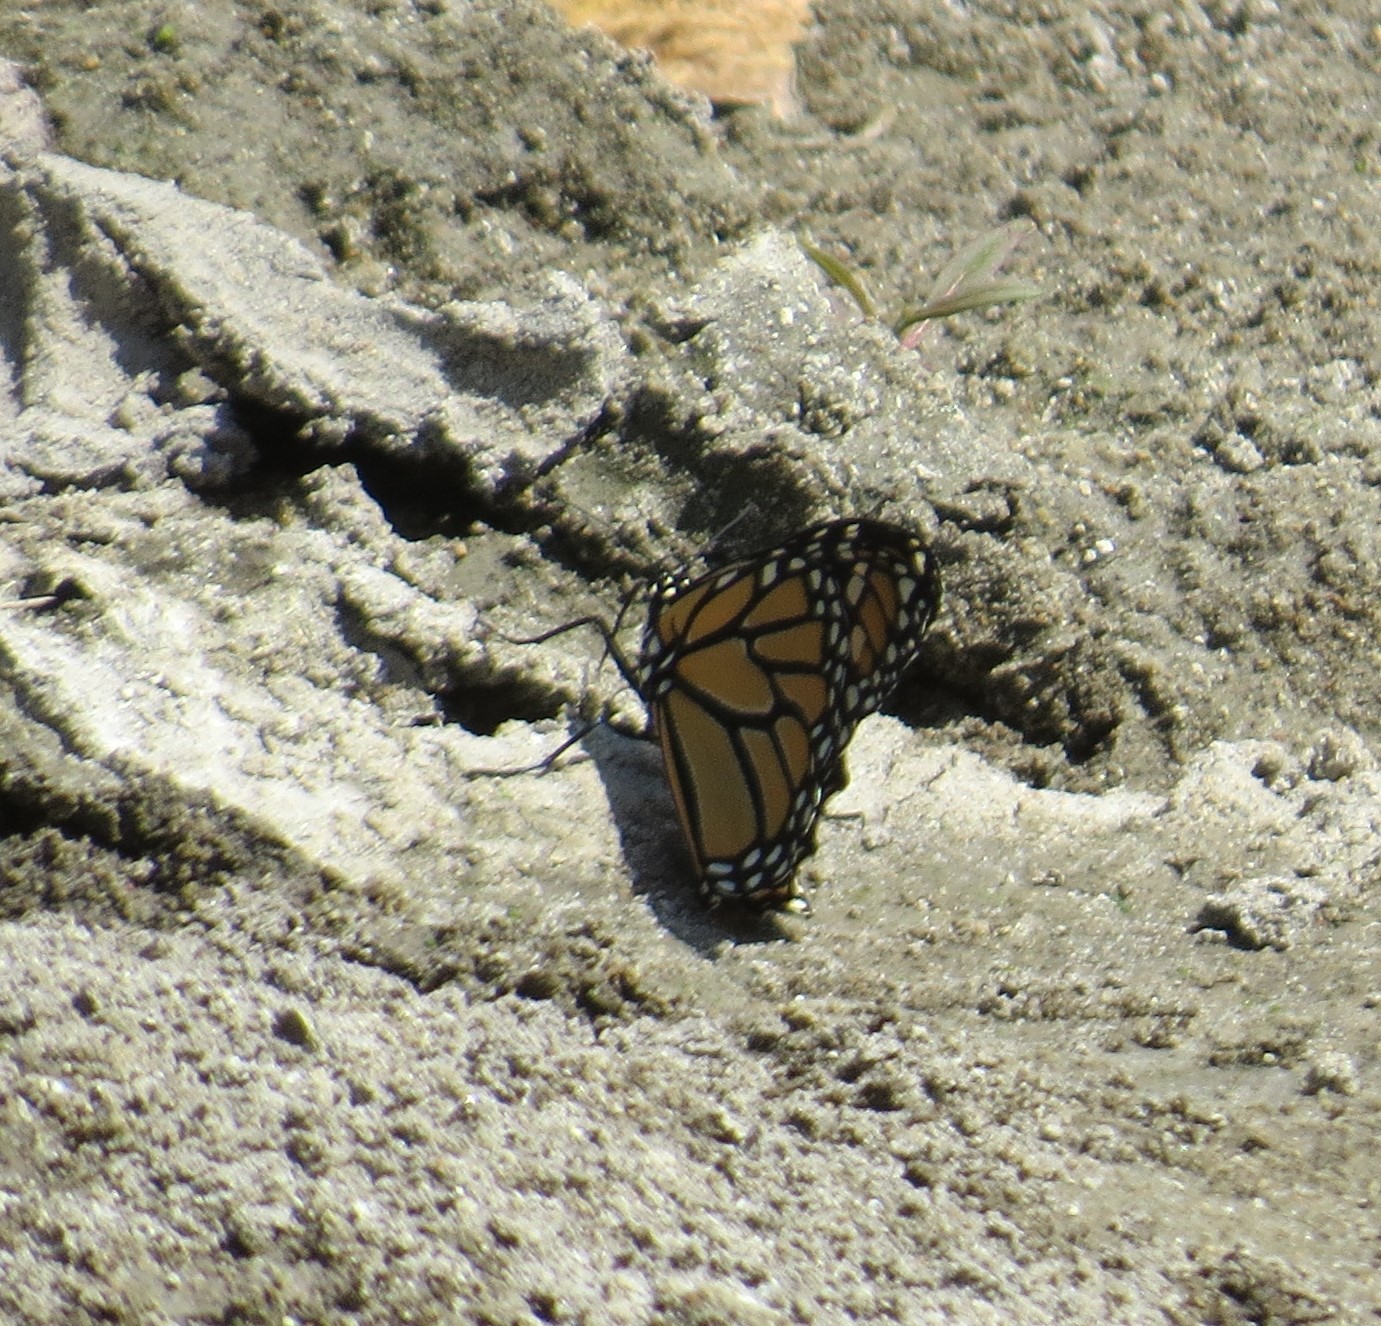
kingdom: Animalia
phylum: Arthropoda
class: Insecta
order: Lepidoptera
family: Nymphalidae
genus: Danaus
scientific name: Danaus plexippus
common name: Monarch
